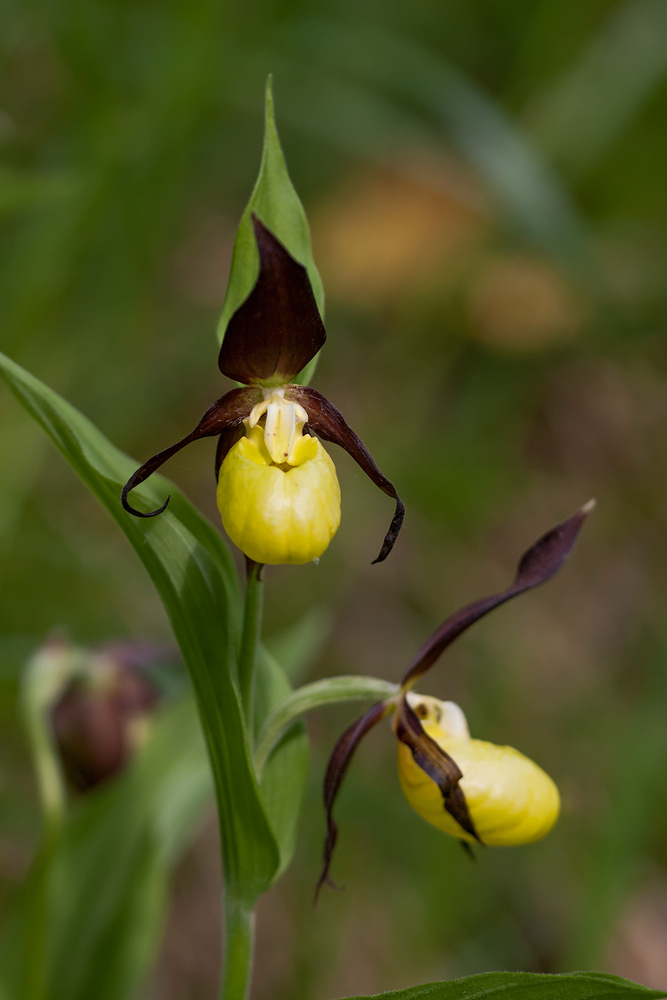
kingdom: Plantae
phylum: Tracheophyta
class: Liliopsida
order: Asparagales
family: Orchidaceae
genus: Cypripedium
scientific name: Cypripedium calceolus
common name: Lady's-slipper
